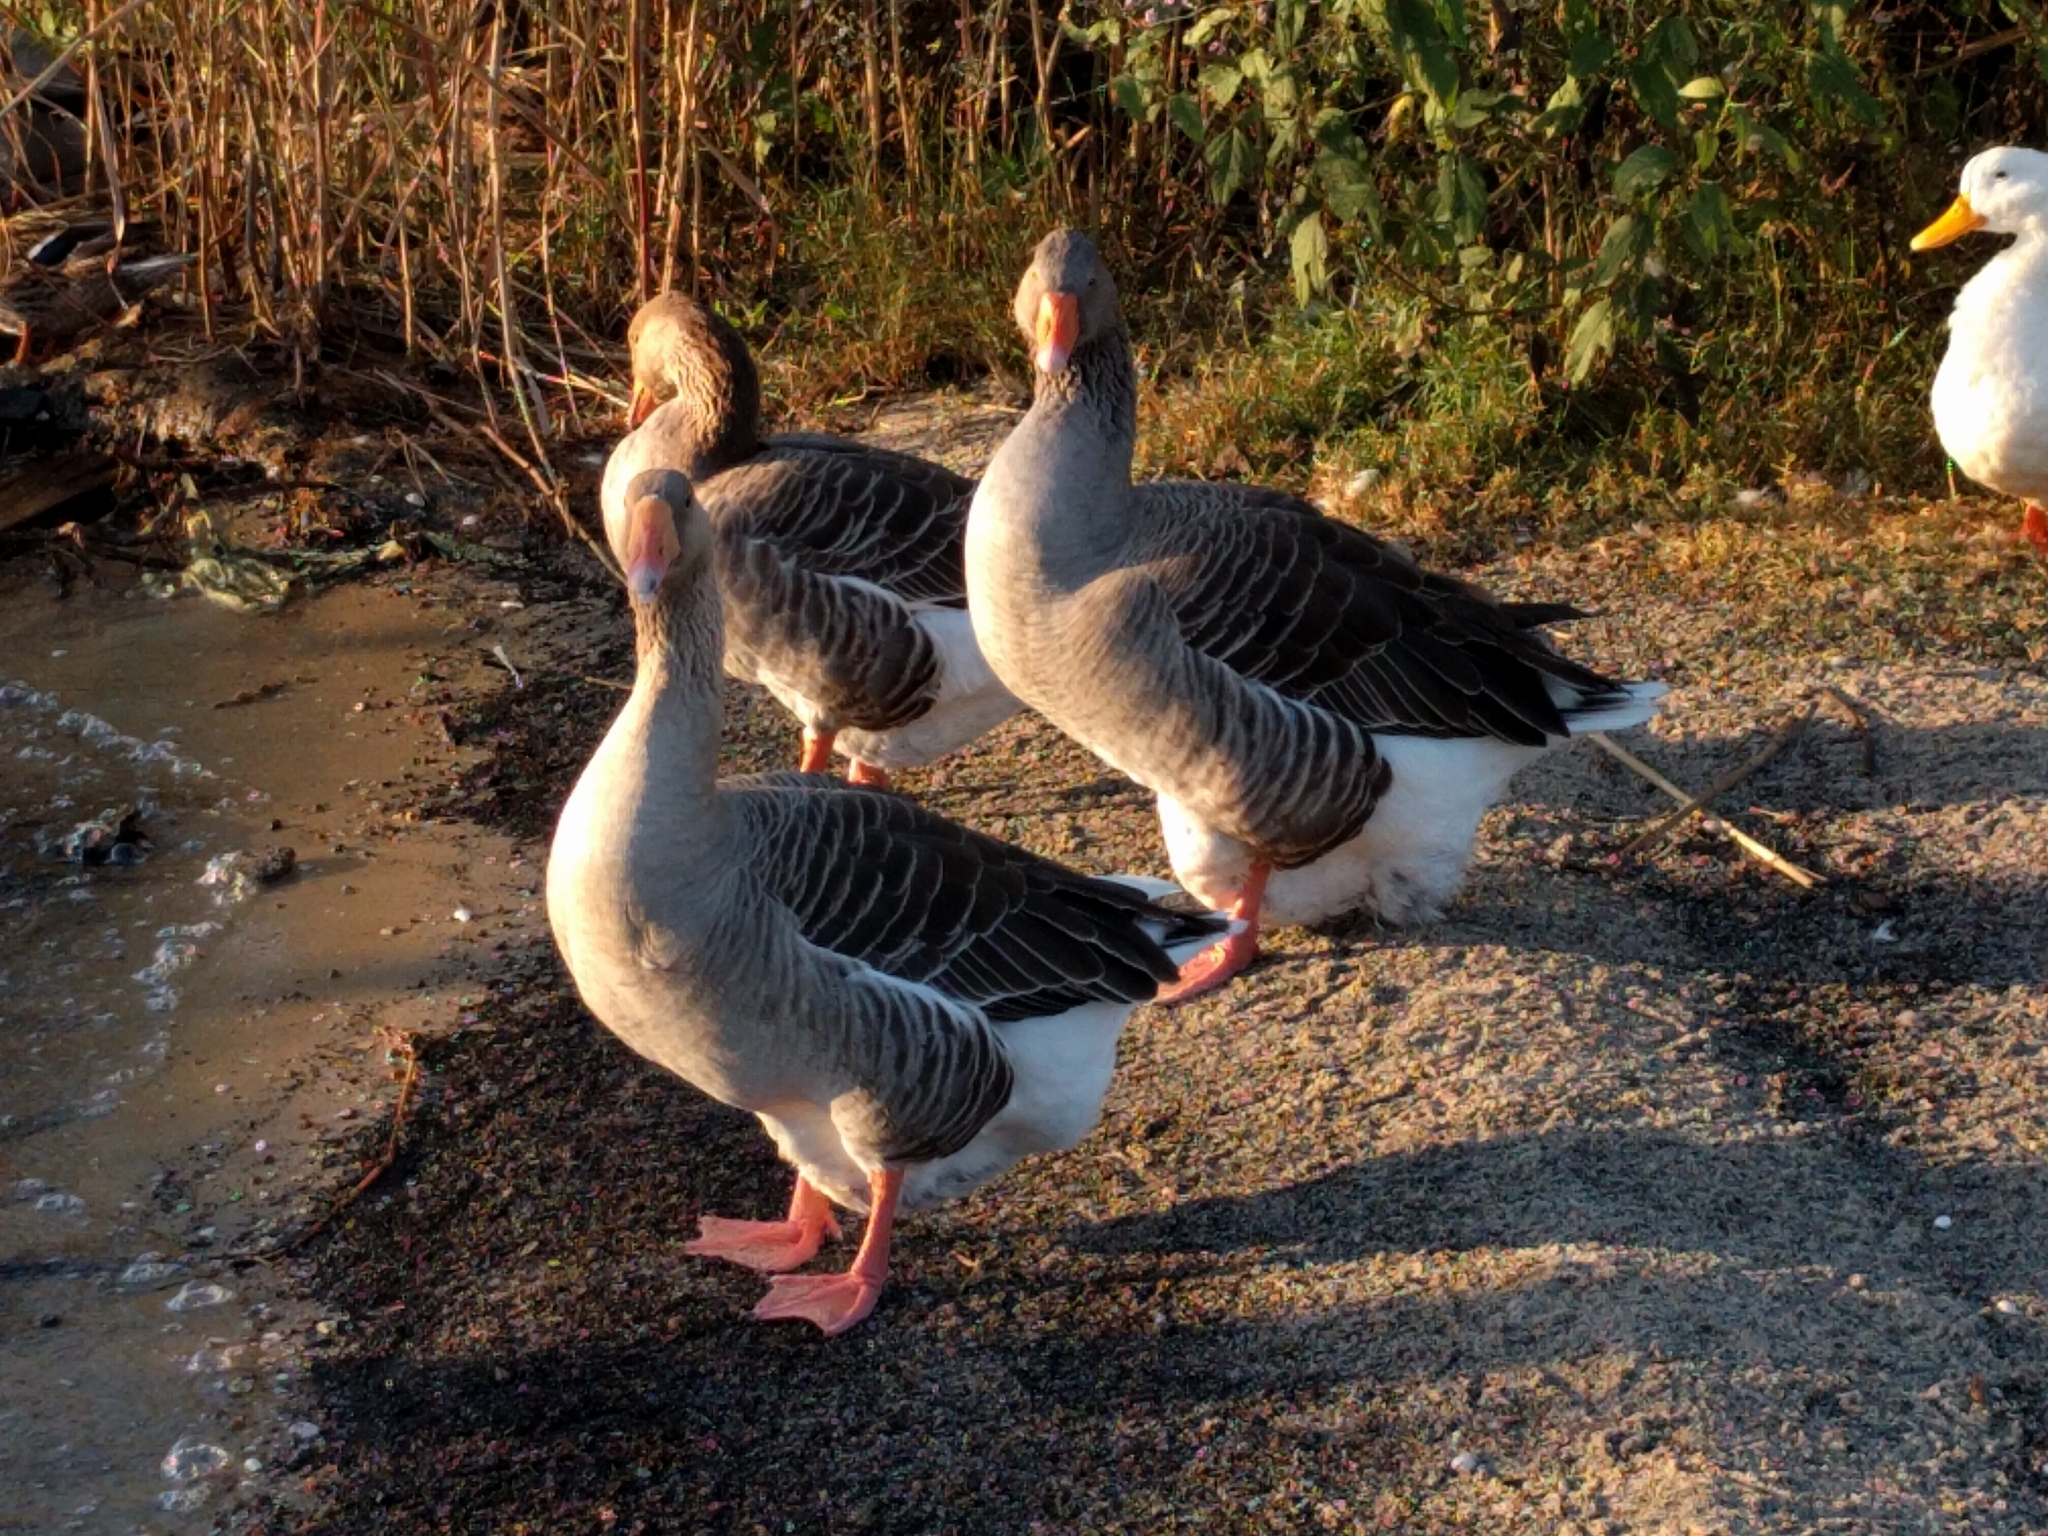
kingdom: Animalia
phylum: Chordata
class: Aves
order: Anseriformes
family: Anatidae
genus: Anser
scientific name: Anser anser
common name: Greylag goose
